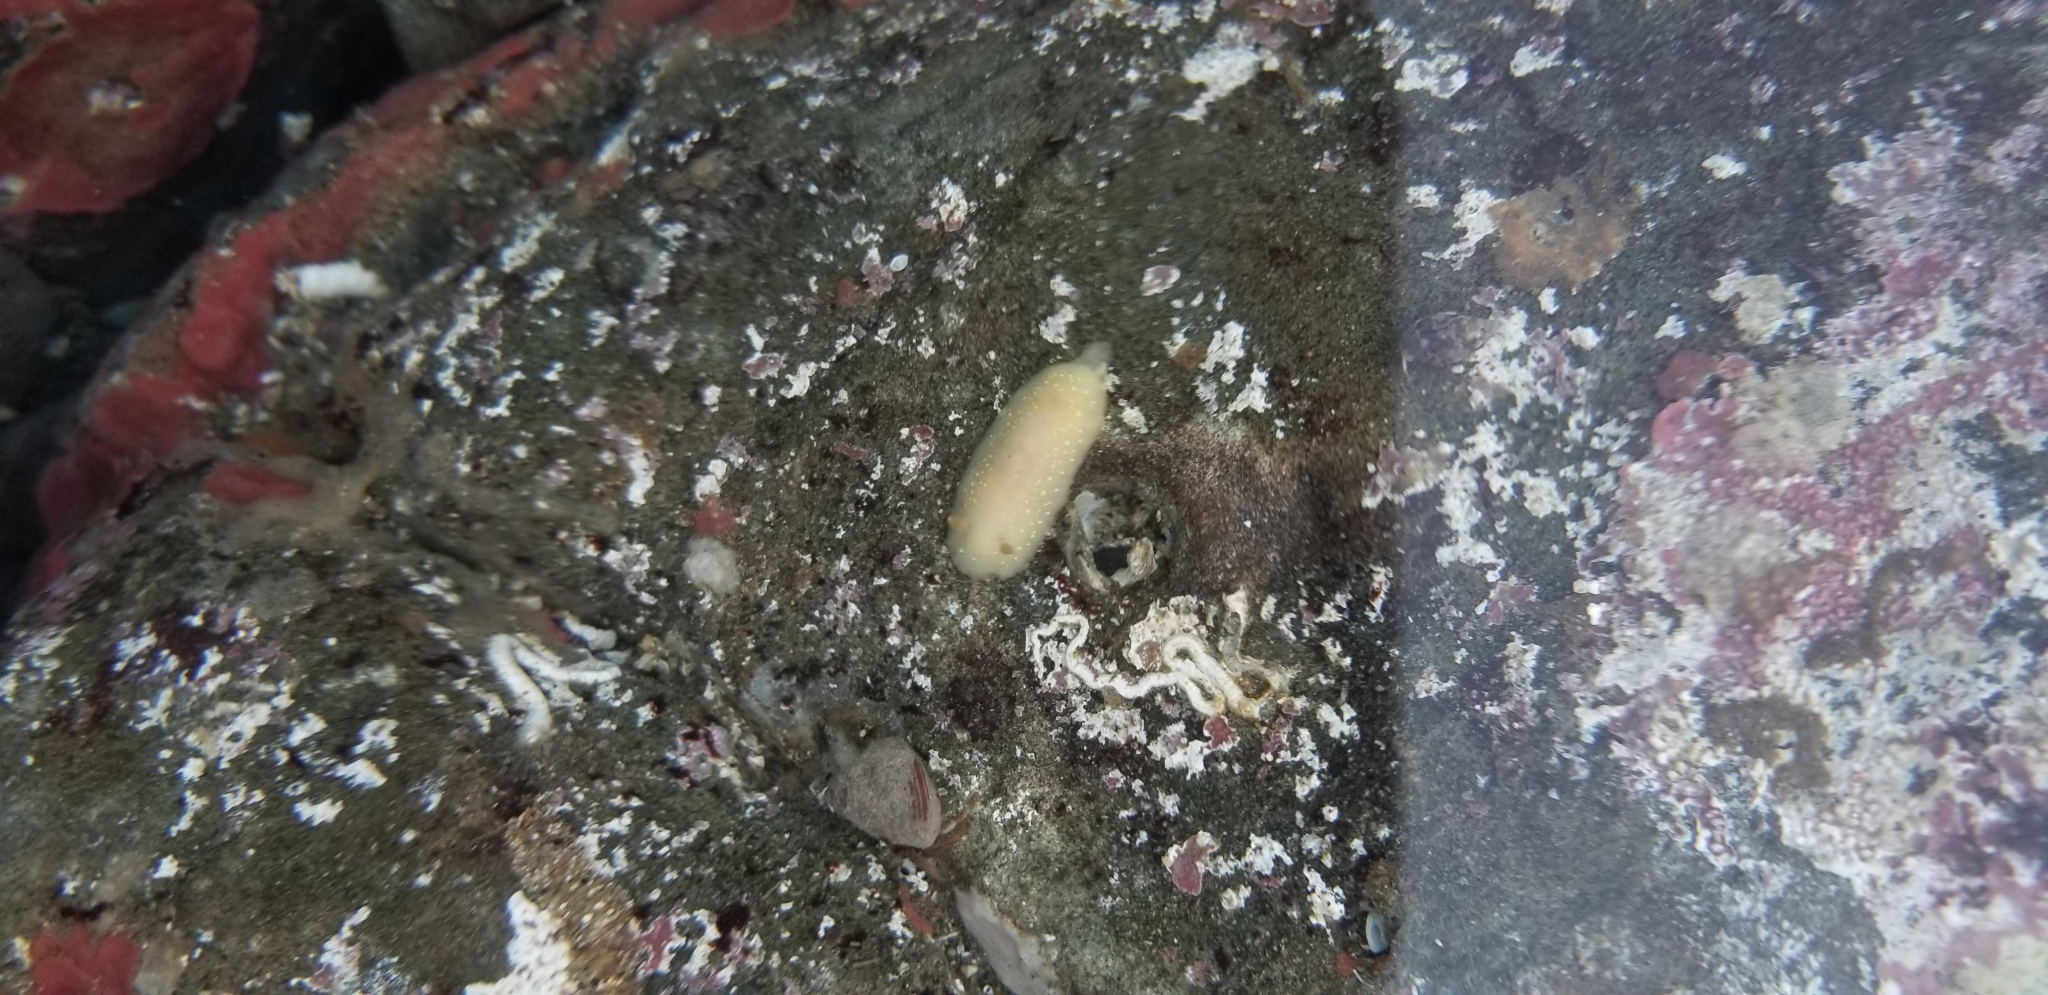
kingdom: Animalia
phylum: Mollusca
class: Gastropoda
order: Nudibranchia
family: Cadlinidae
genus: Cadlina
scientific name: Cadlina modesta
